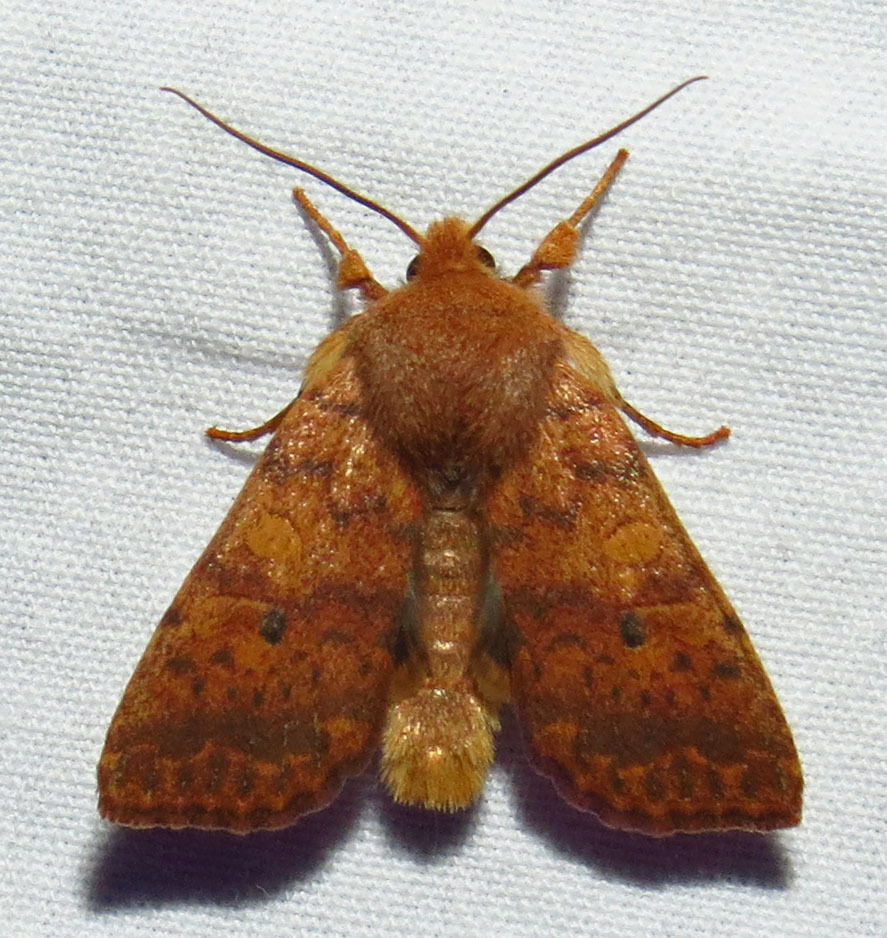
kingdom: Animalia
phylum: Arthropoda
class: Insecta
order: Lepidoptera
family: Noctuidae
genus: Agrochola
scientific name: Agrochola bicolorago
